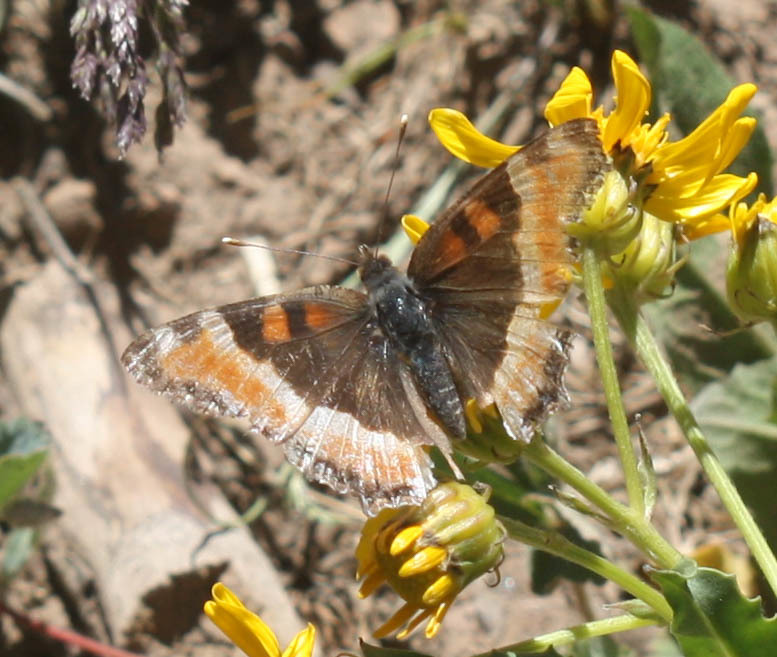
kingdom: Animalia
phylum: Arthropoda
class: Insecta
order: Lepidoptera
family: Nymphalidae
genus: Aglais
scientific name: Aglais milberti
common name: Milbert's tortoiseshell
